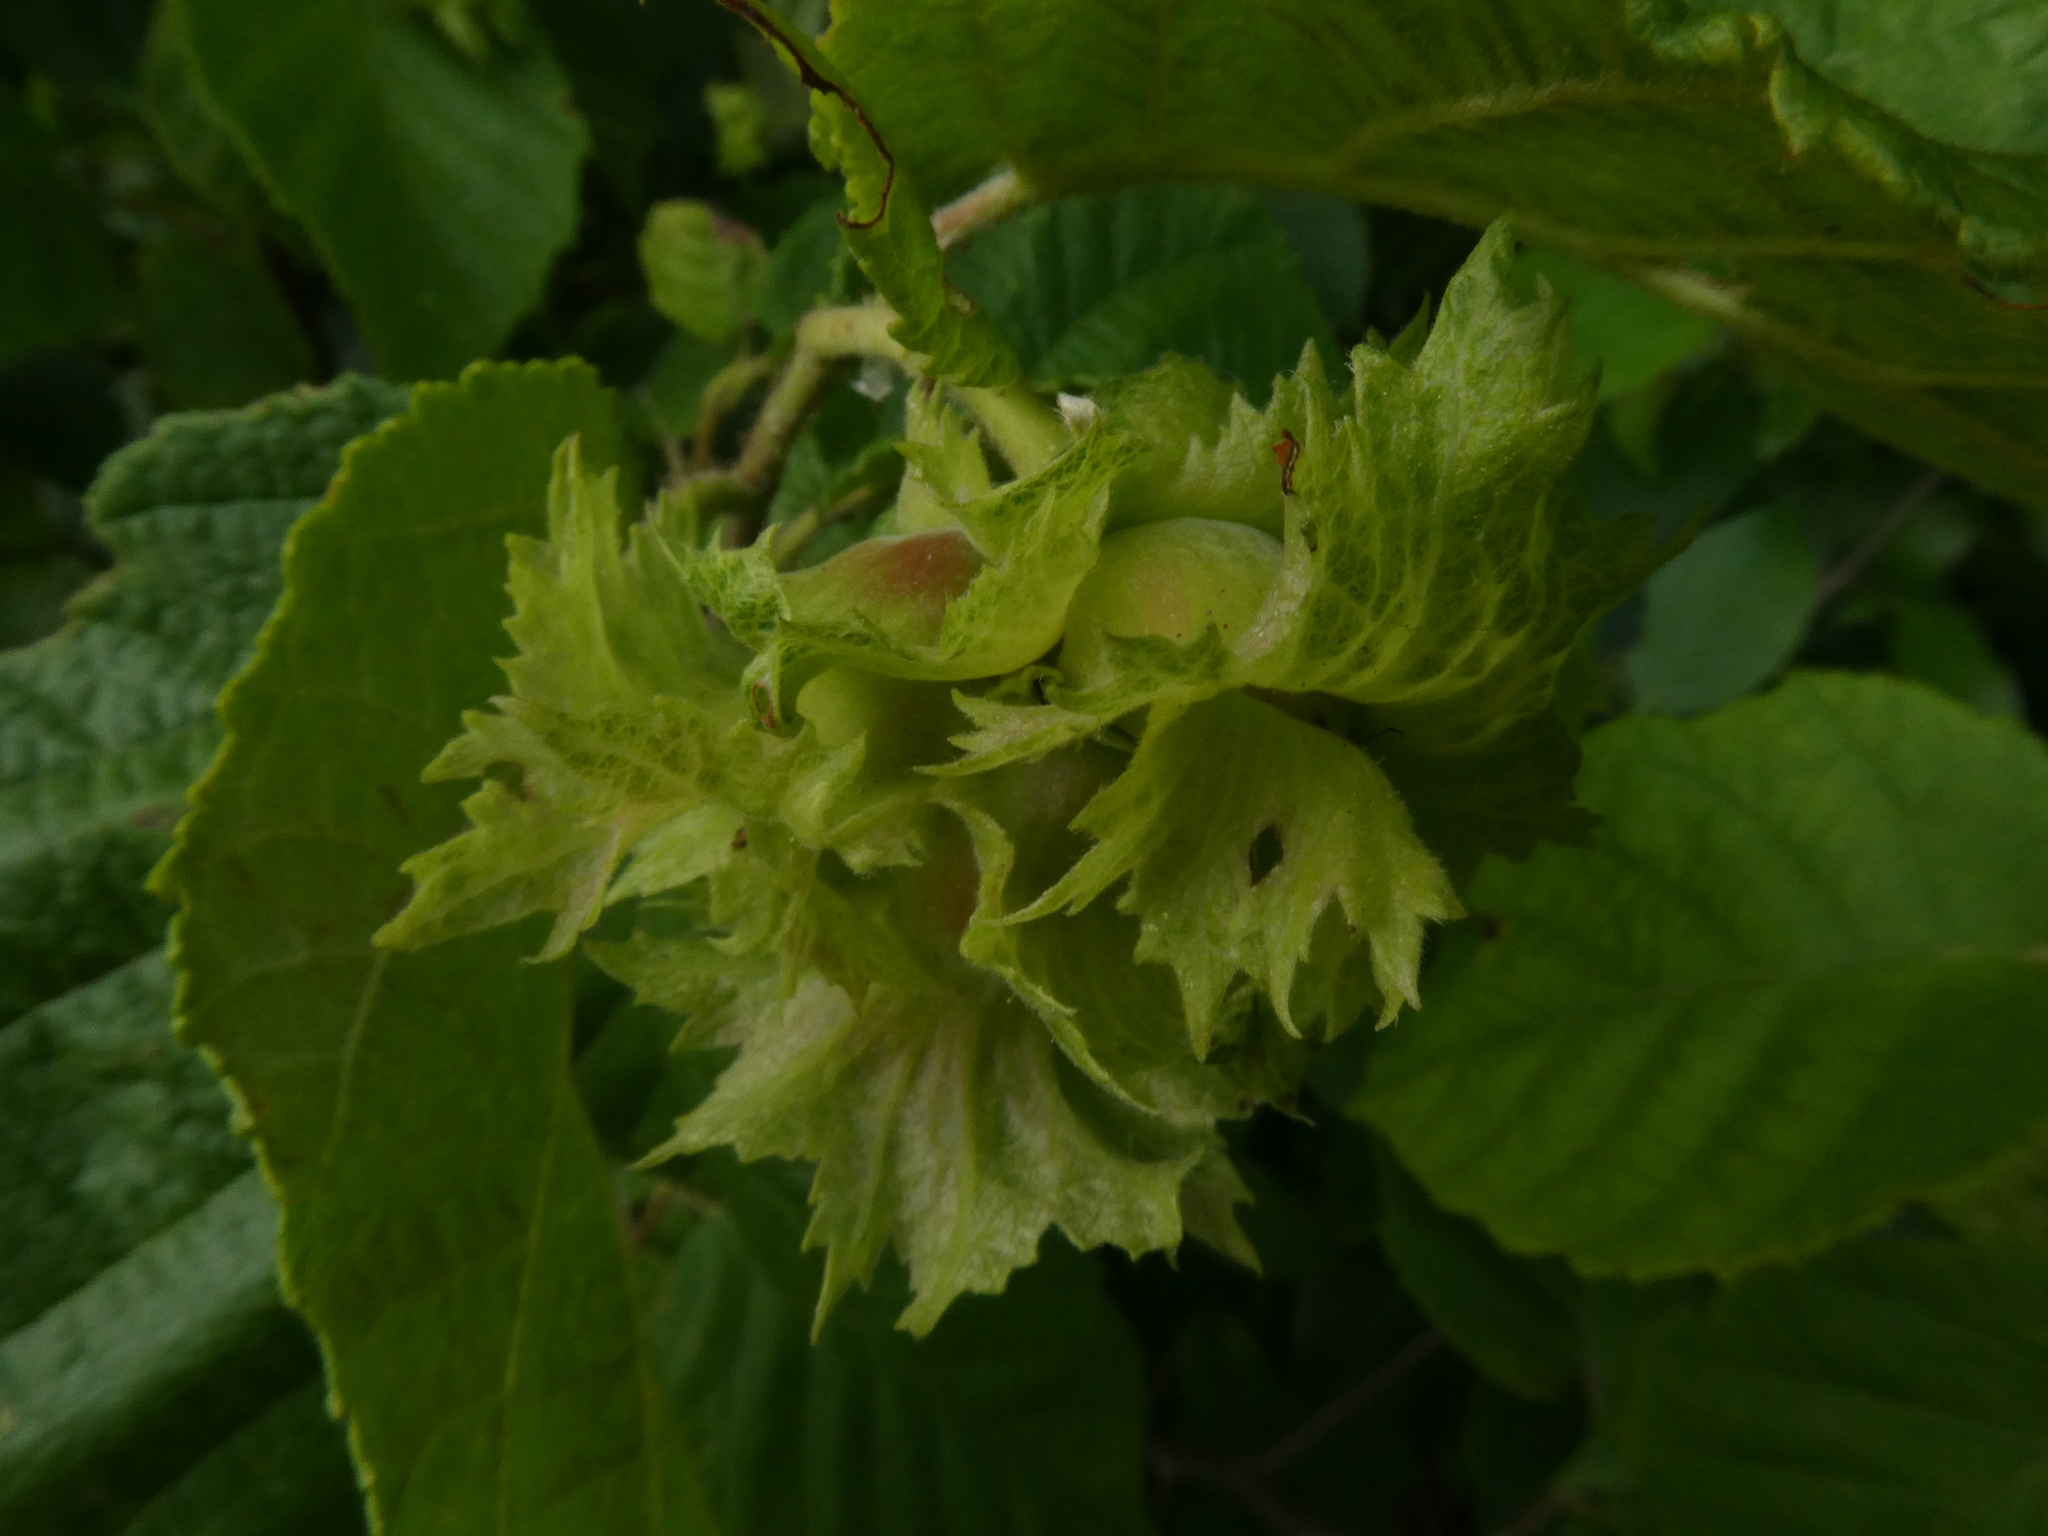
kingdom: Plantae
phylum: Tracheophyta
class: Magnoliopsida
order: Fagales
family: Betulaceae
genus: Corylus
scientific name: Corylus americana
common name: American hazel
